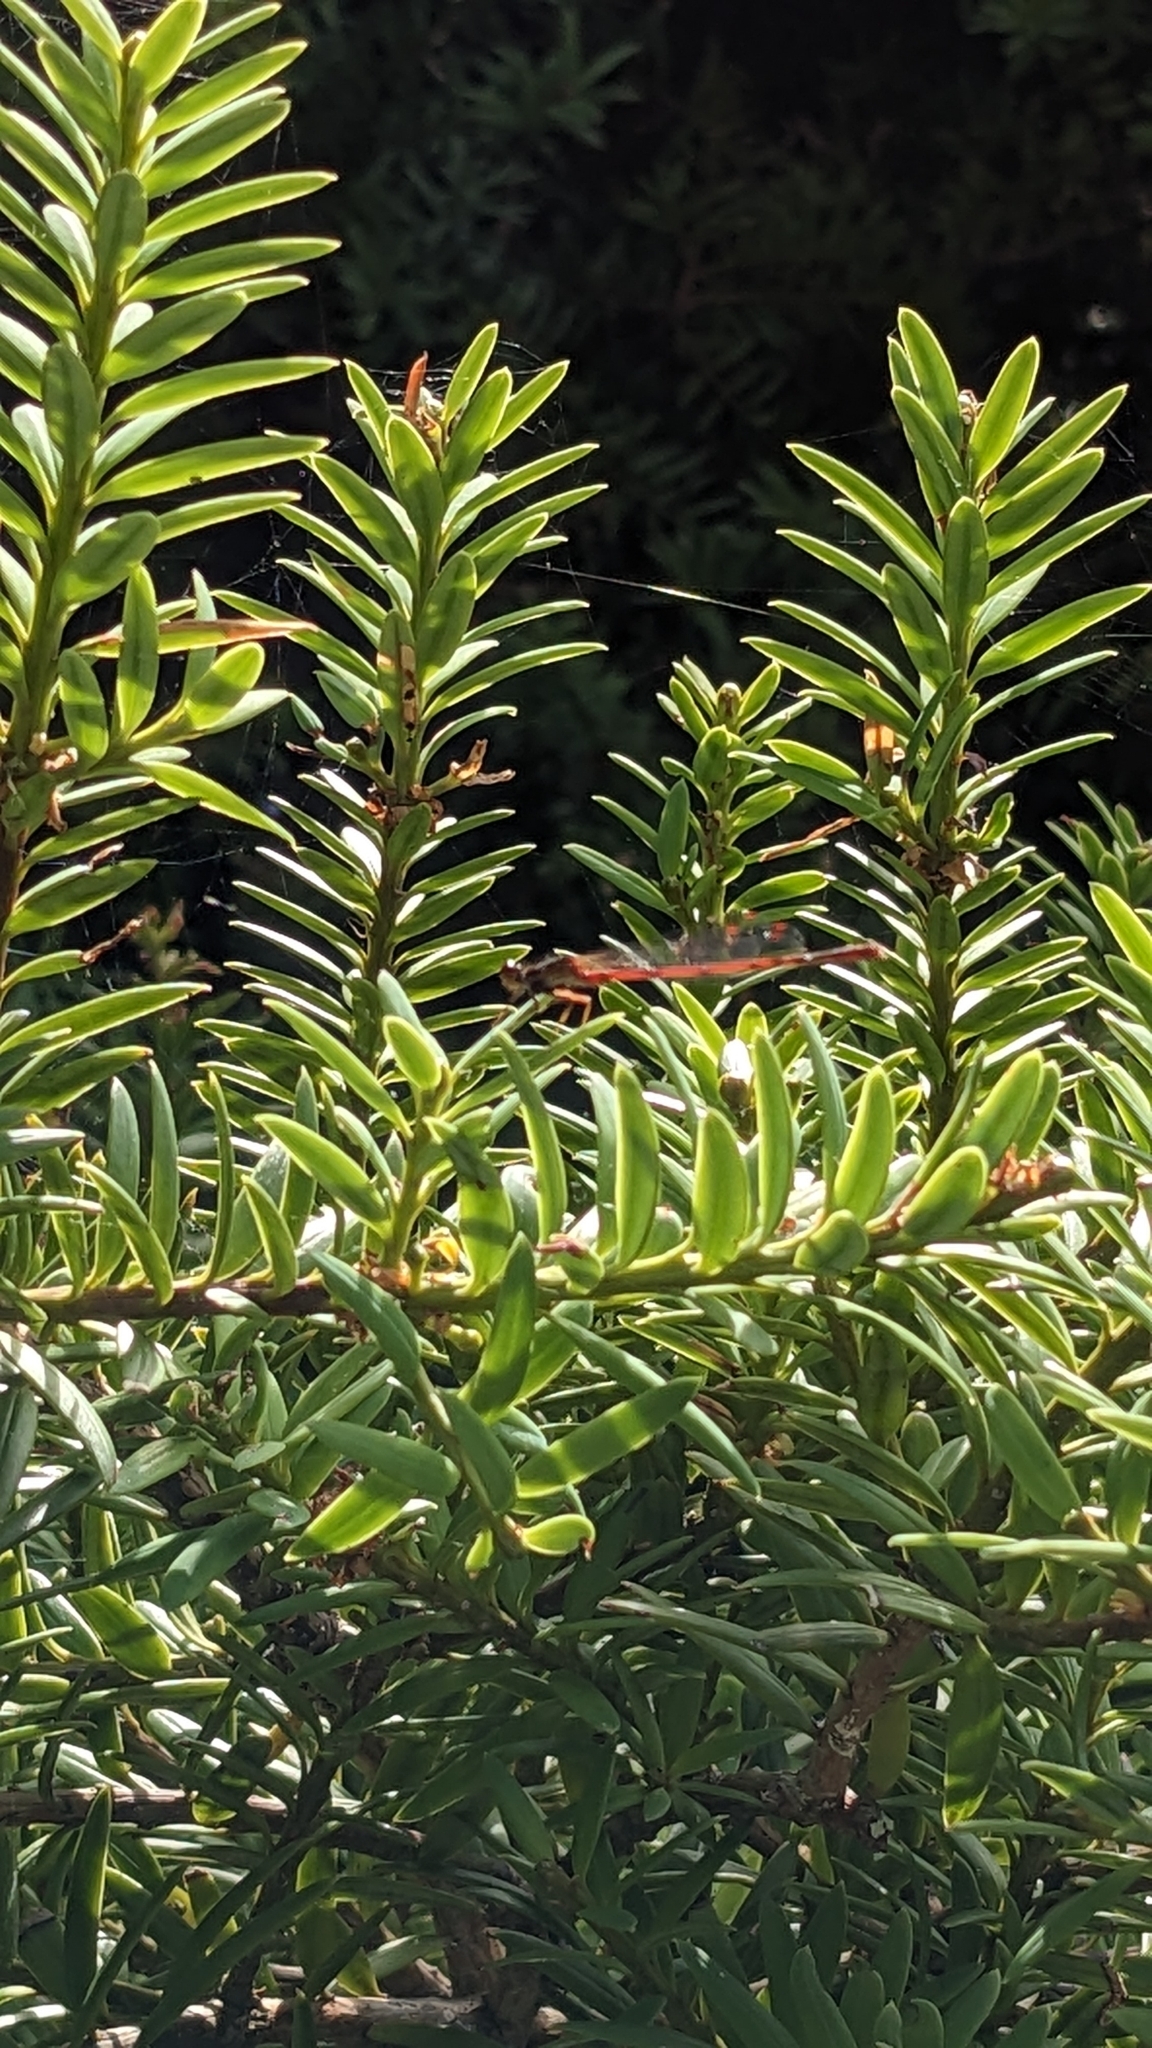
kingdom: Animalia
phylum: Arthropoda
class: Insecta
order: Odonata
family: Coenagrionidae
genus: Xanthocnemis
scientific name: Xanthocnemis zealandica
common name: Common redcoat damselfly
